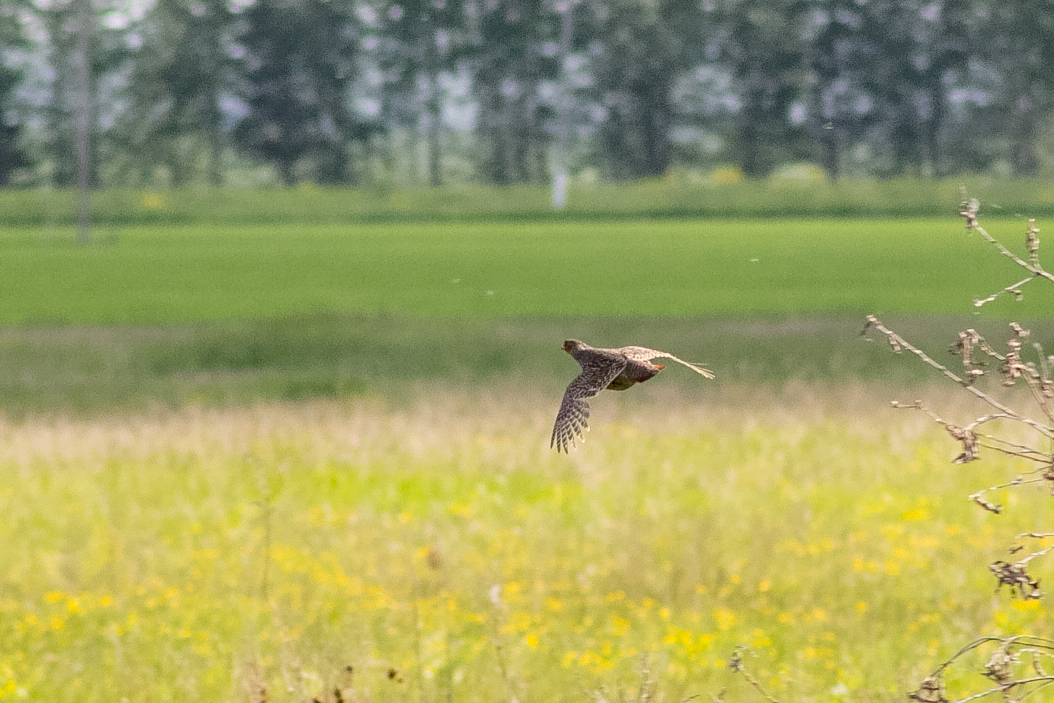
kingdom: Animalia
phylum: Chordata
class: Aves
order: Galliformes
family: Phasianidae
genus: Perdix
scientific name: Perdix perdix
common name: Grey partridge
